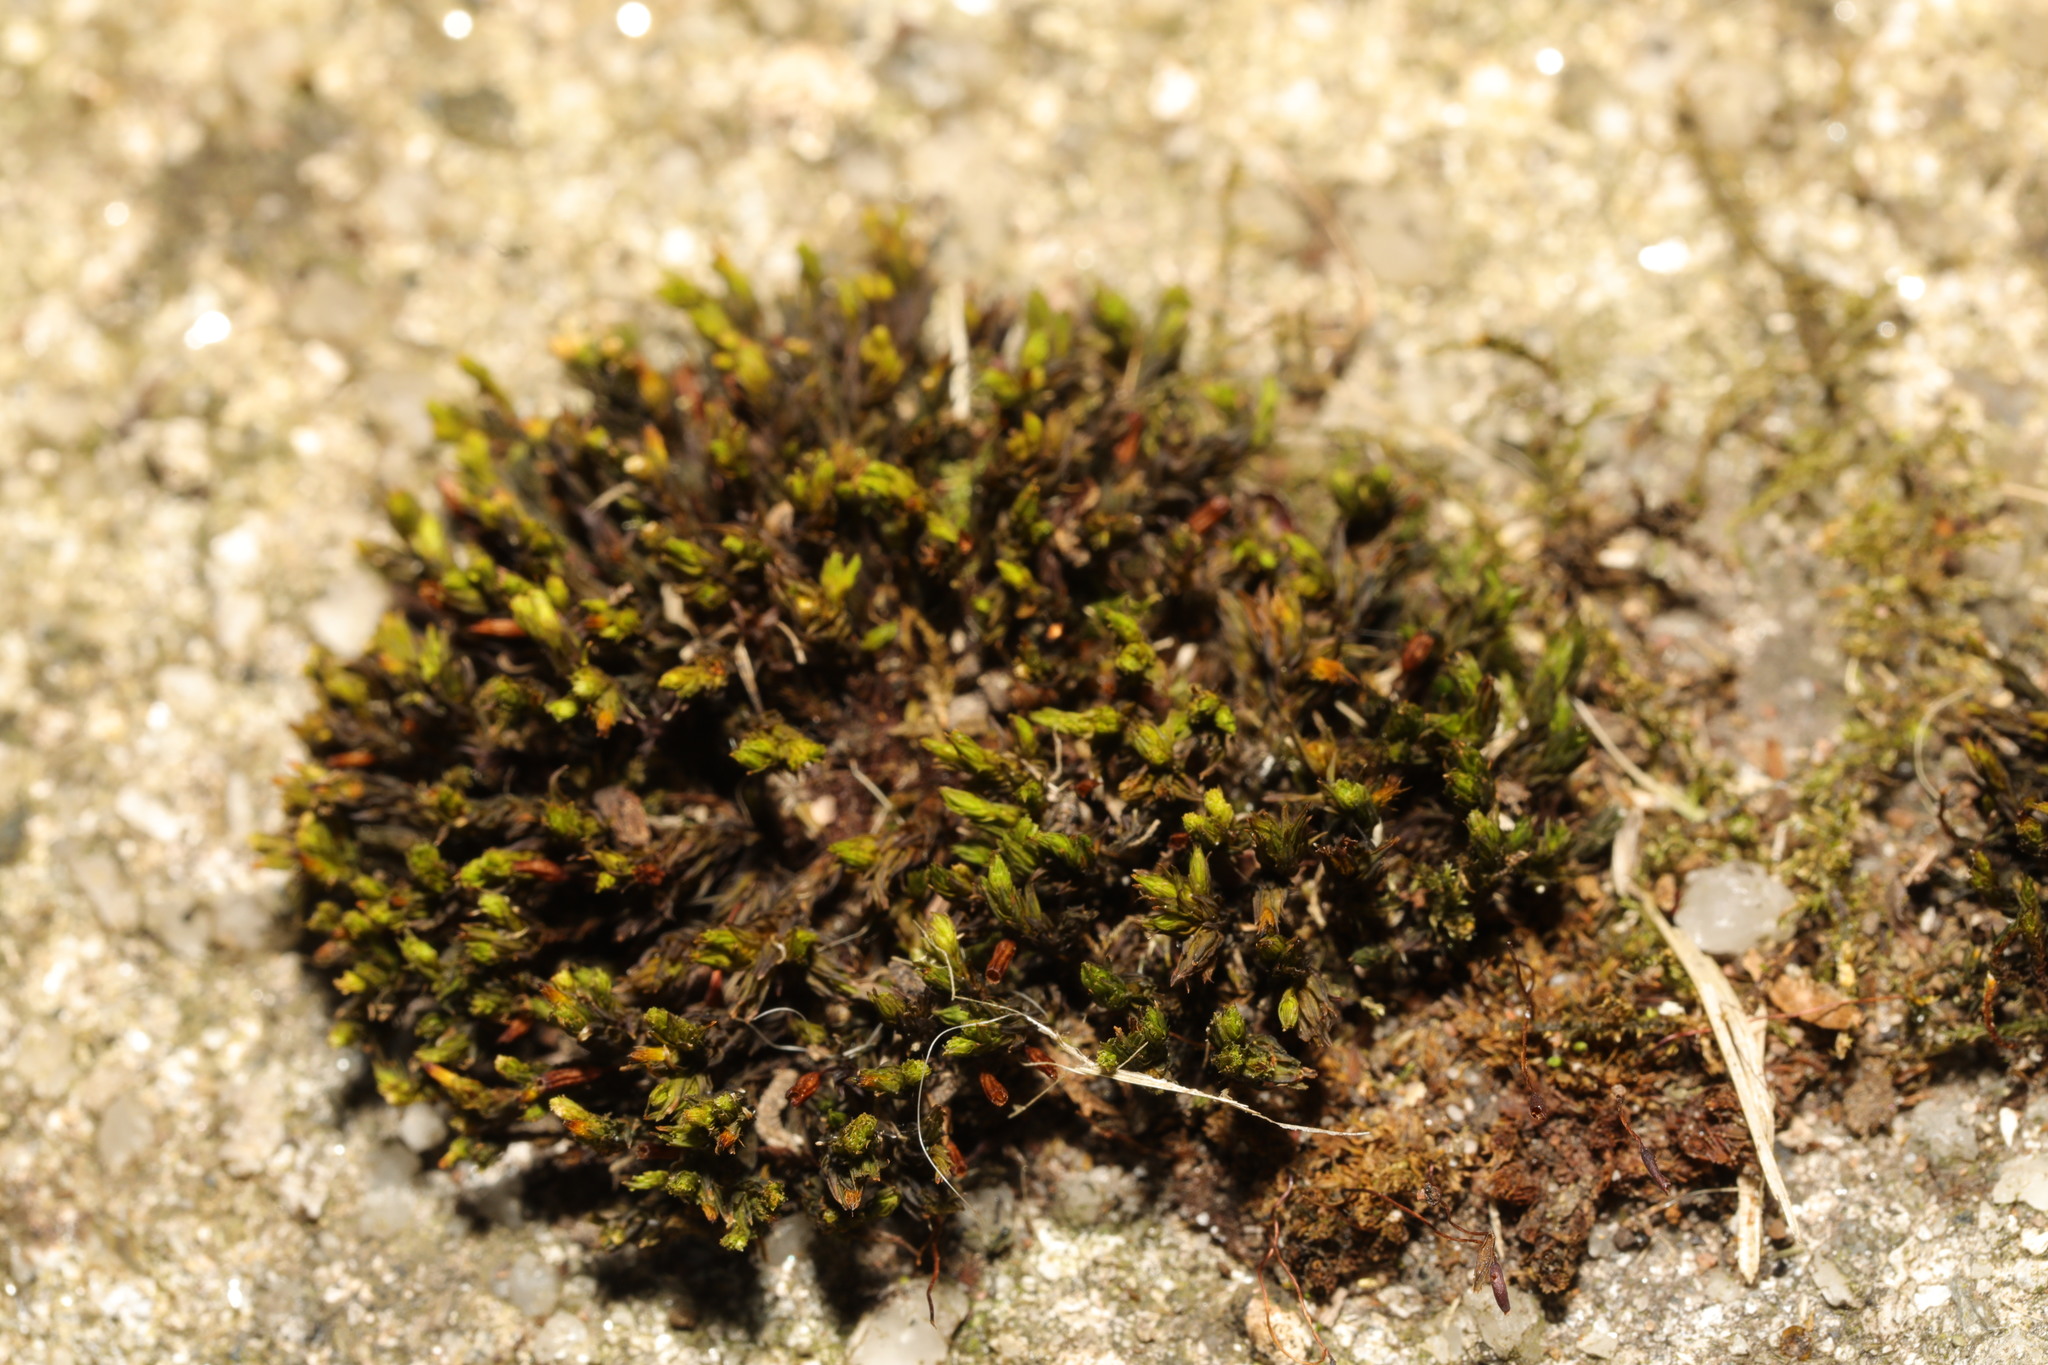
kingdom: Plantae
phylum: Bryophyta
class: Bryopsida
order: Orthotrichales
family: Orthotrichaceae
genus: Orthotrichum
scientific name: Orthotrichum anomalum
